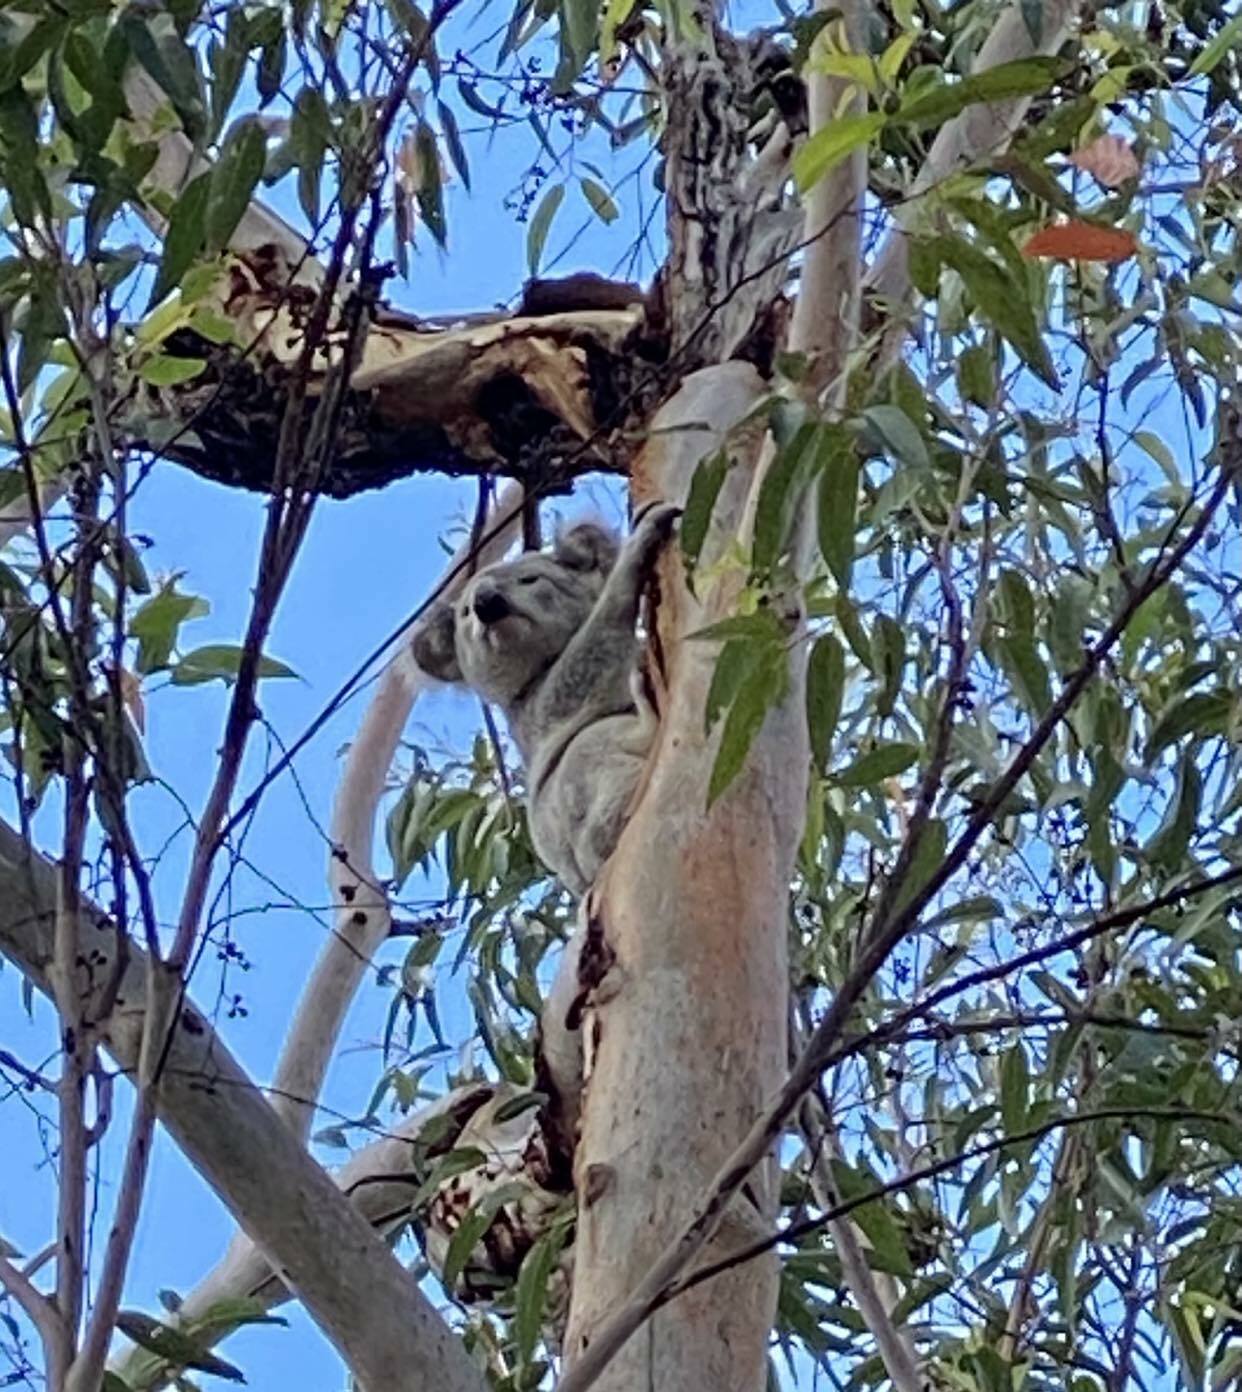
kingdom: Animalia
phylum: Chordata
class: Mammalia
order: Diprotodontia
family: Phascolarctidae
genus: Phascolarctos
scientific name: Phascolarctos cinereus
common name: Koala
